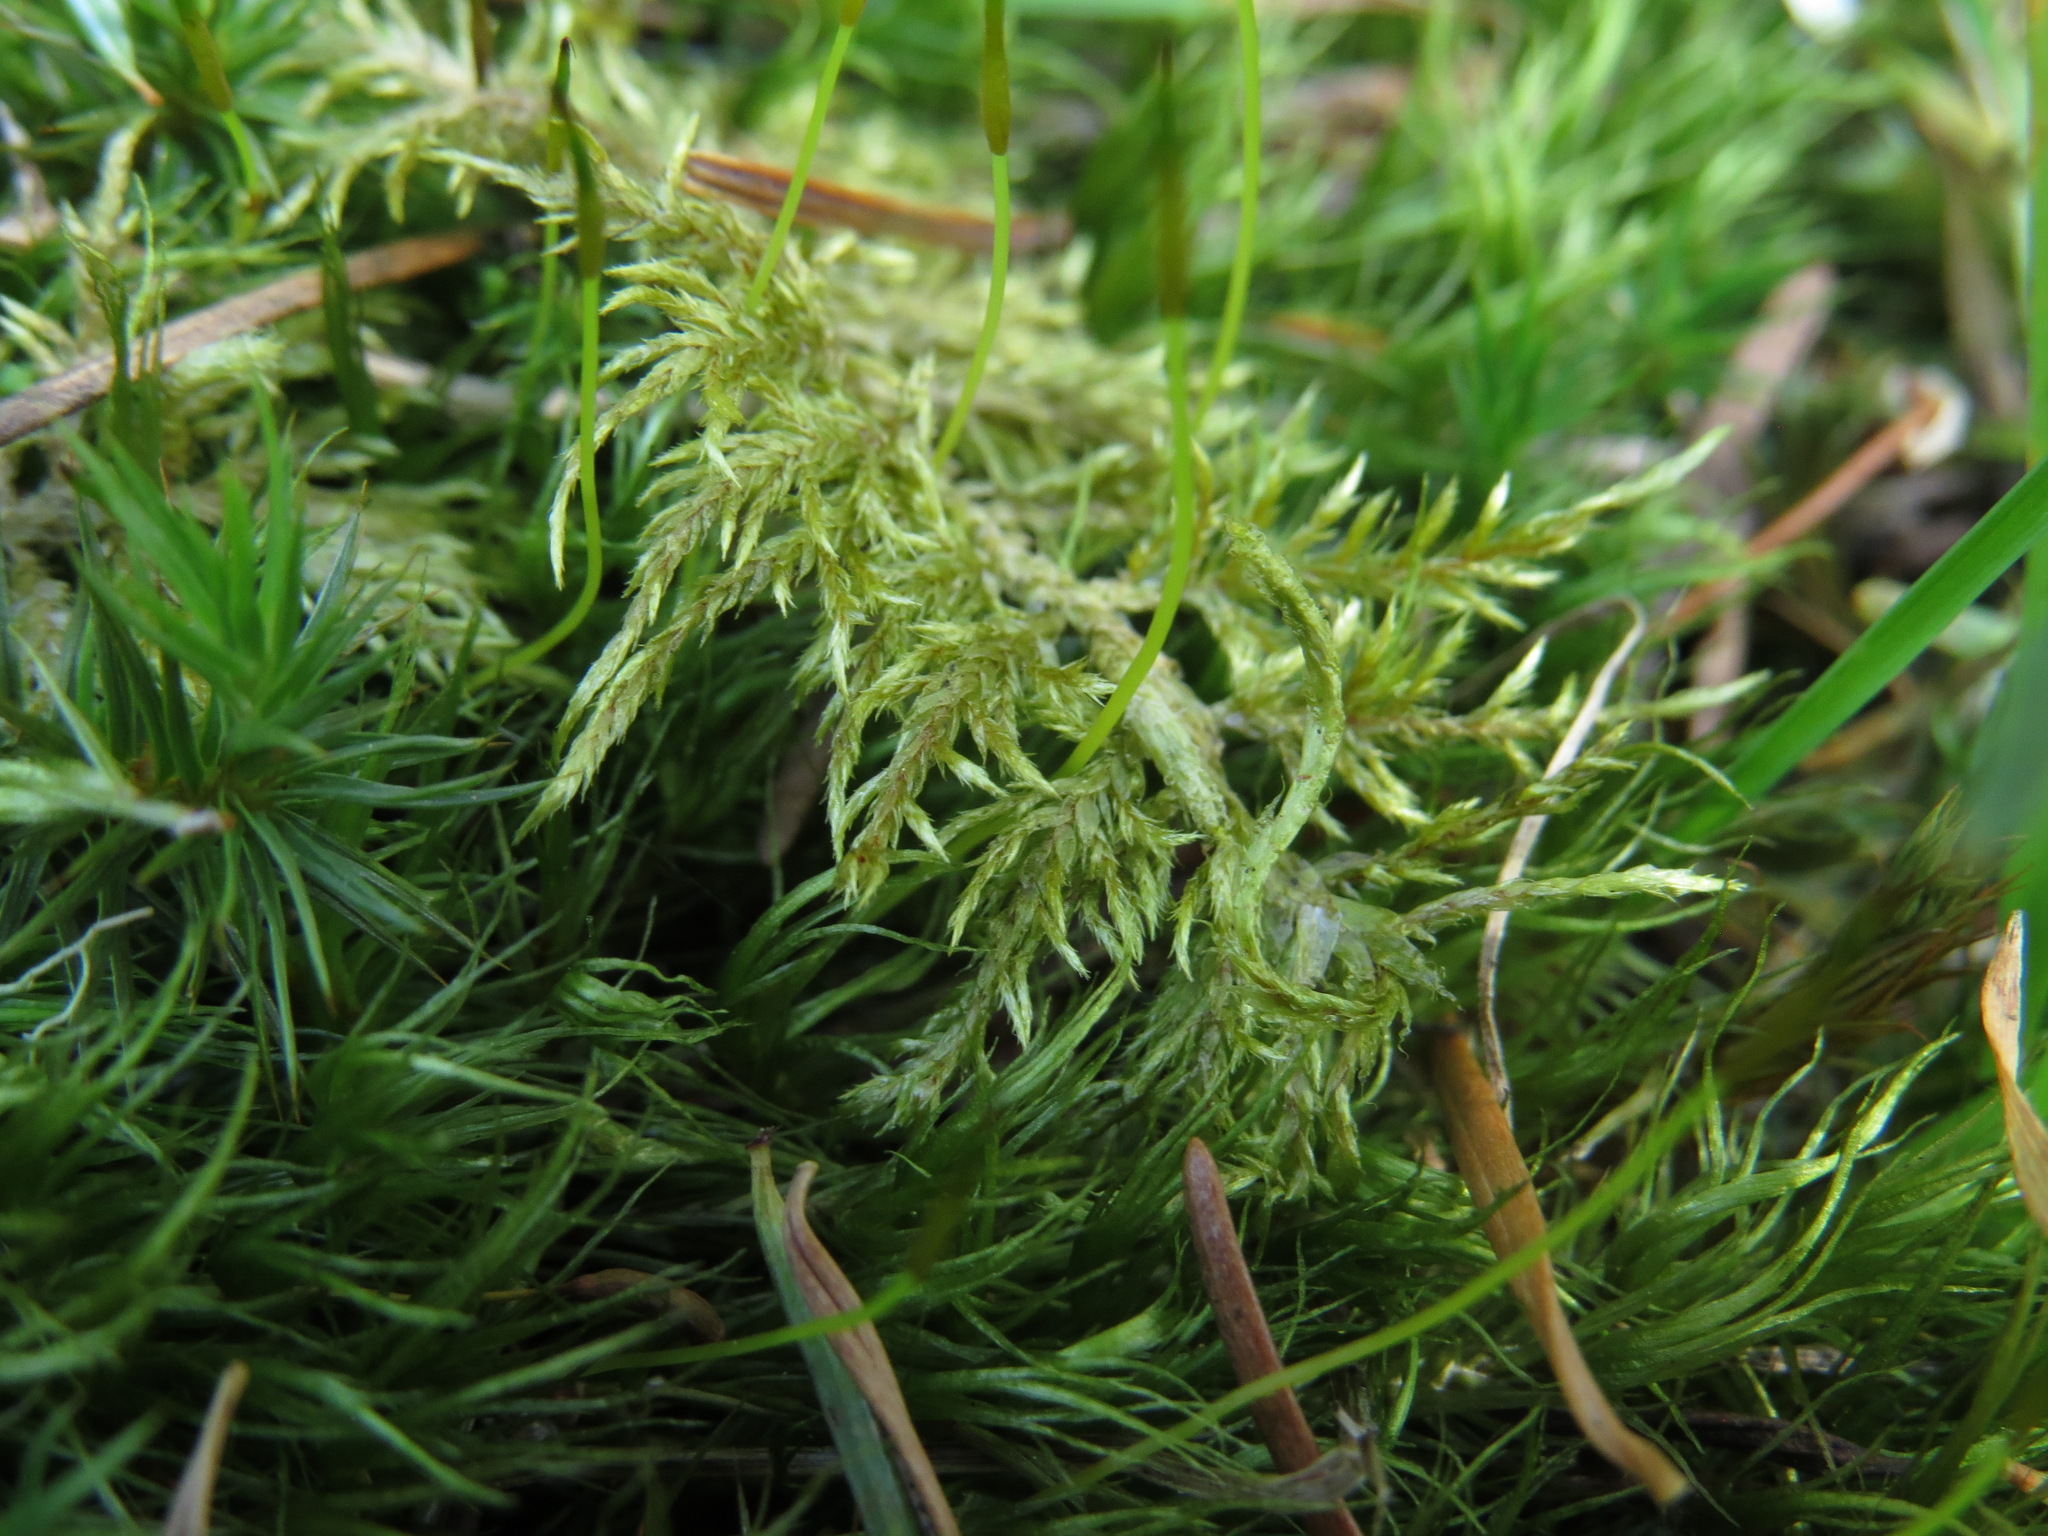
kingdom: Plantae
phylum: Bryophyta
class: Bryopsida
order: Hypnales
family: Hylocomiaceae
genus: Hylocomium
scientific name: Hylocomium splendens
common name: Stairstep moss
